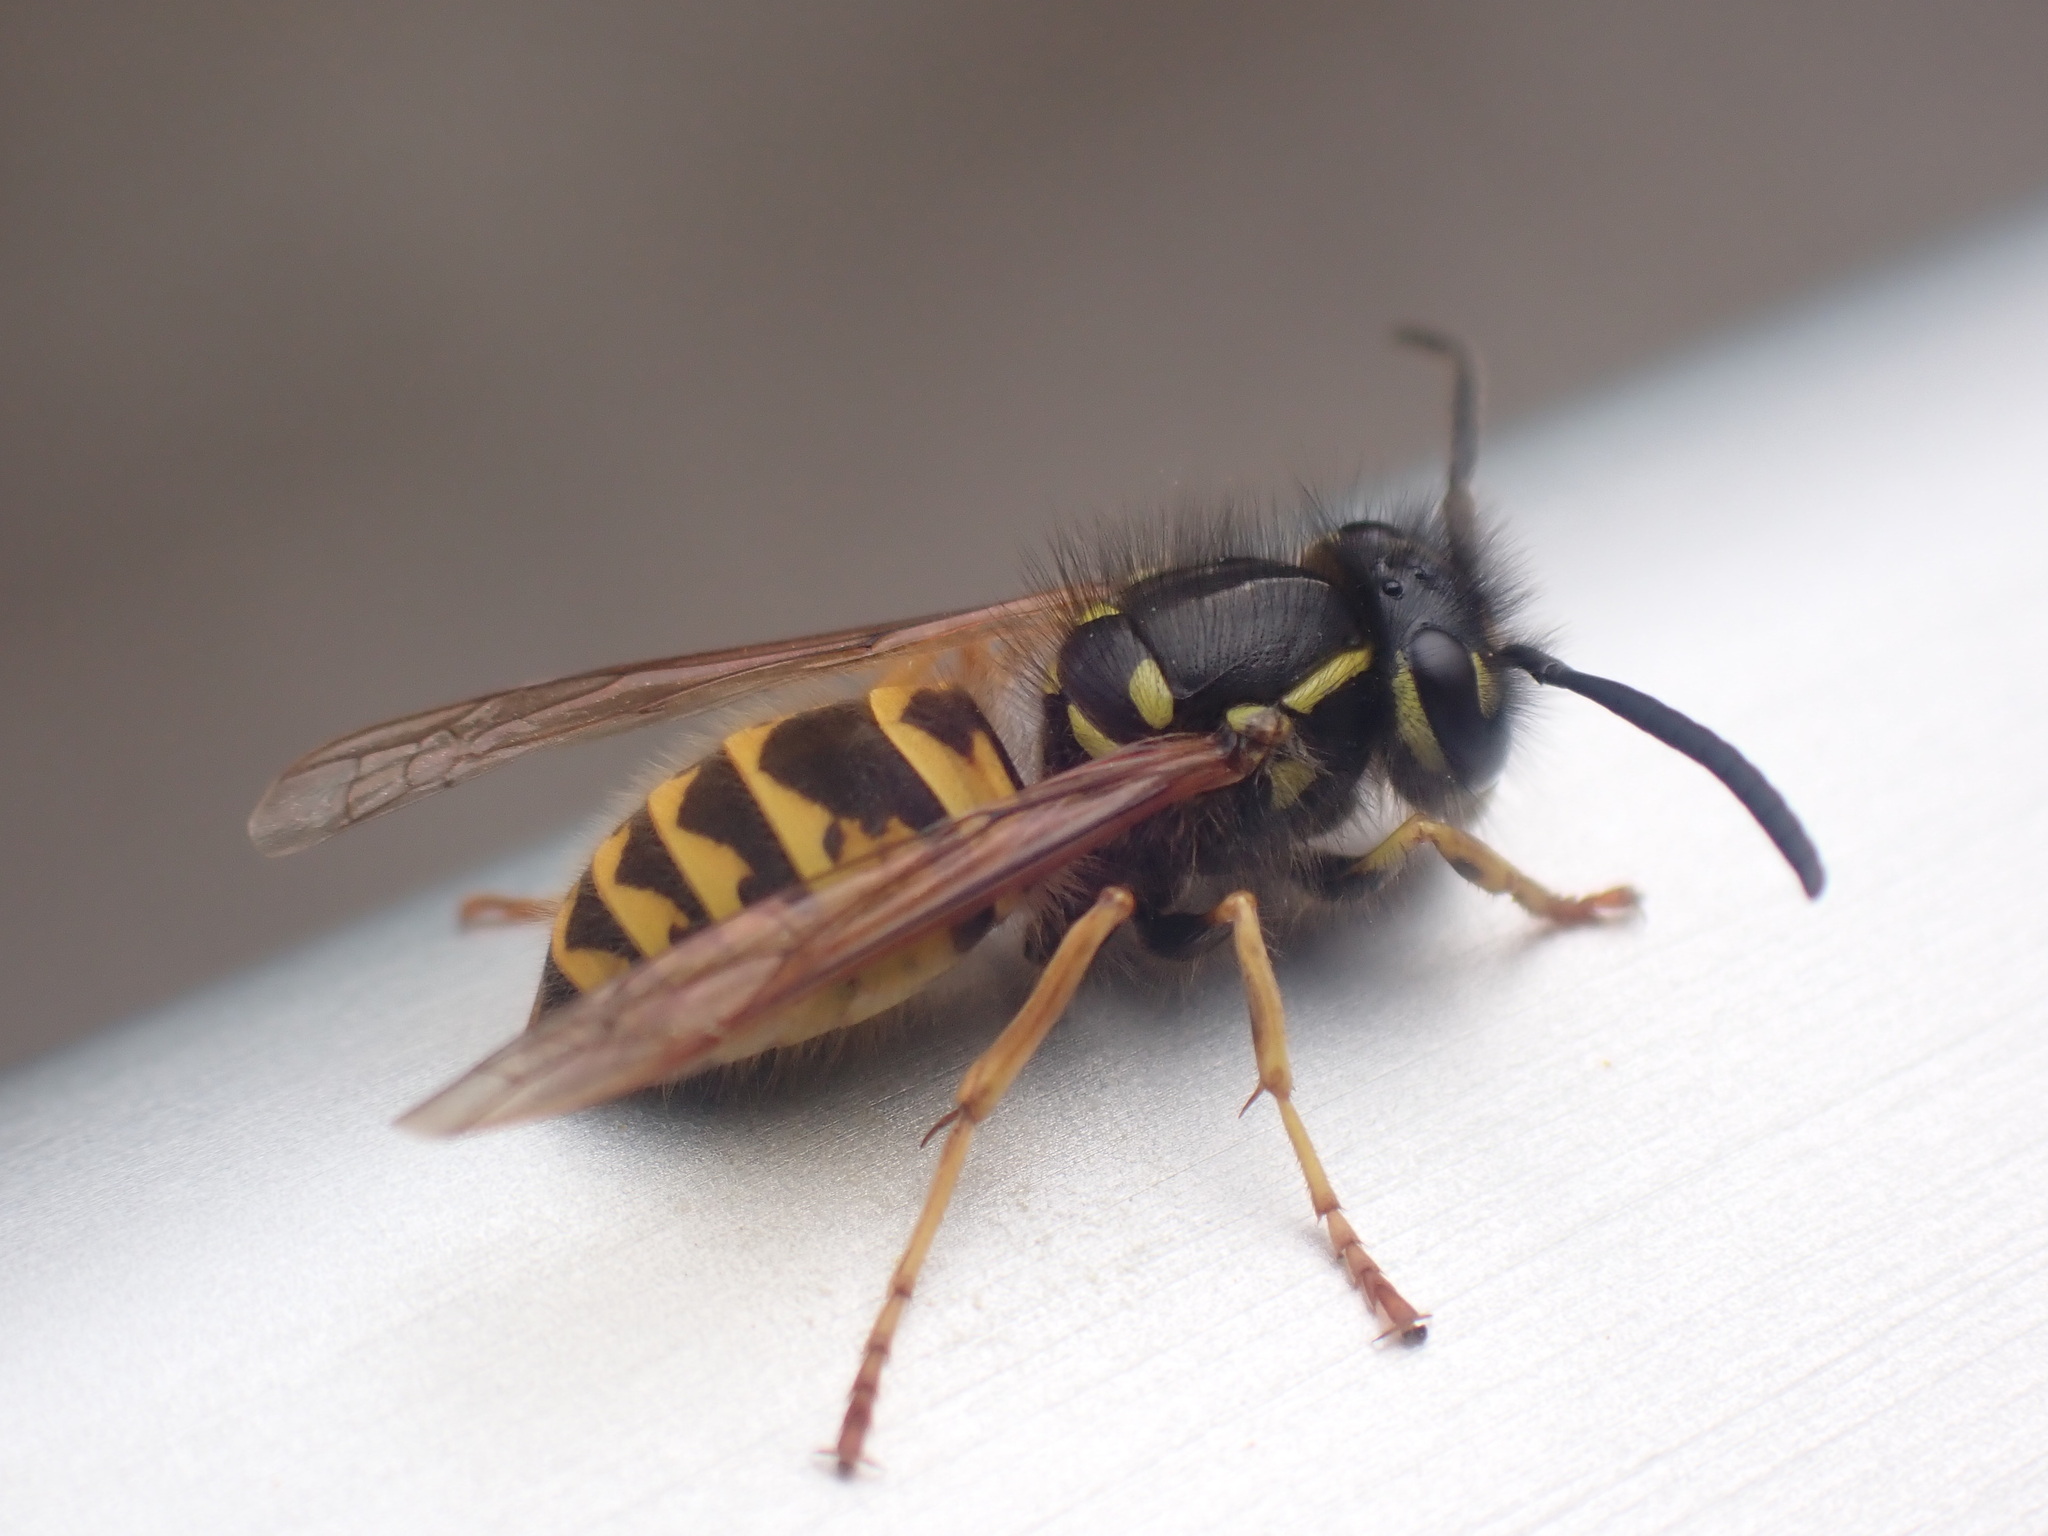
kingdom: Animalia
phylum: Arthropoda
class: Insecta
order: Hymenoptera
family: Vespidae
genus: Vespula
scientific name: Vespula vulgaris
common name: Common wasp
